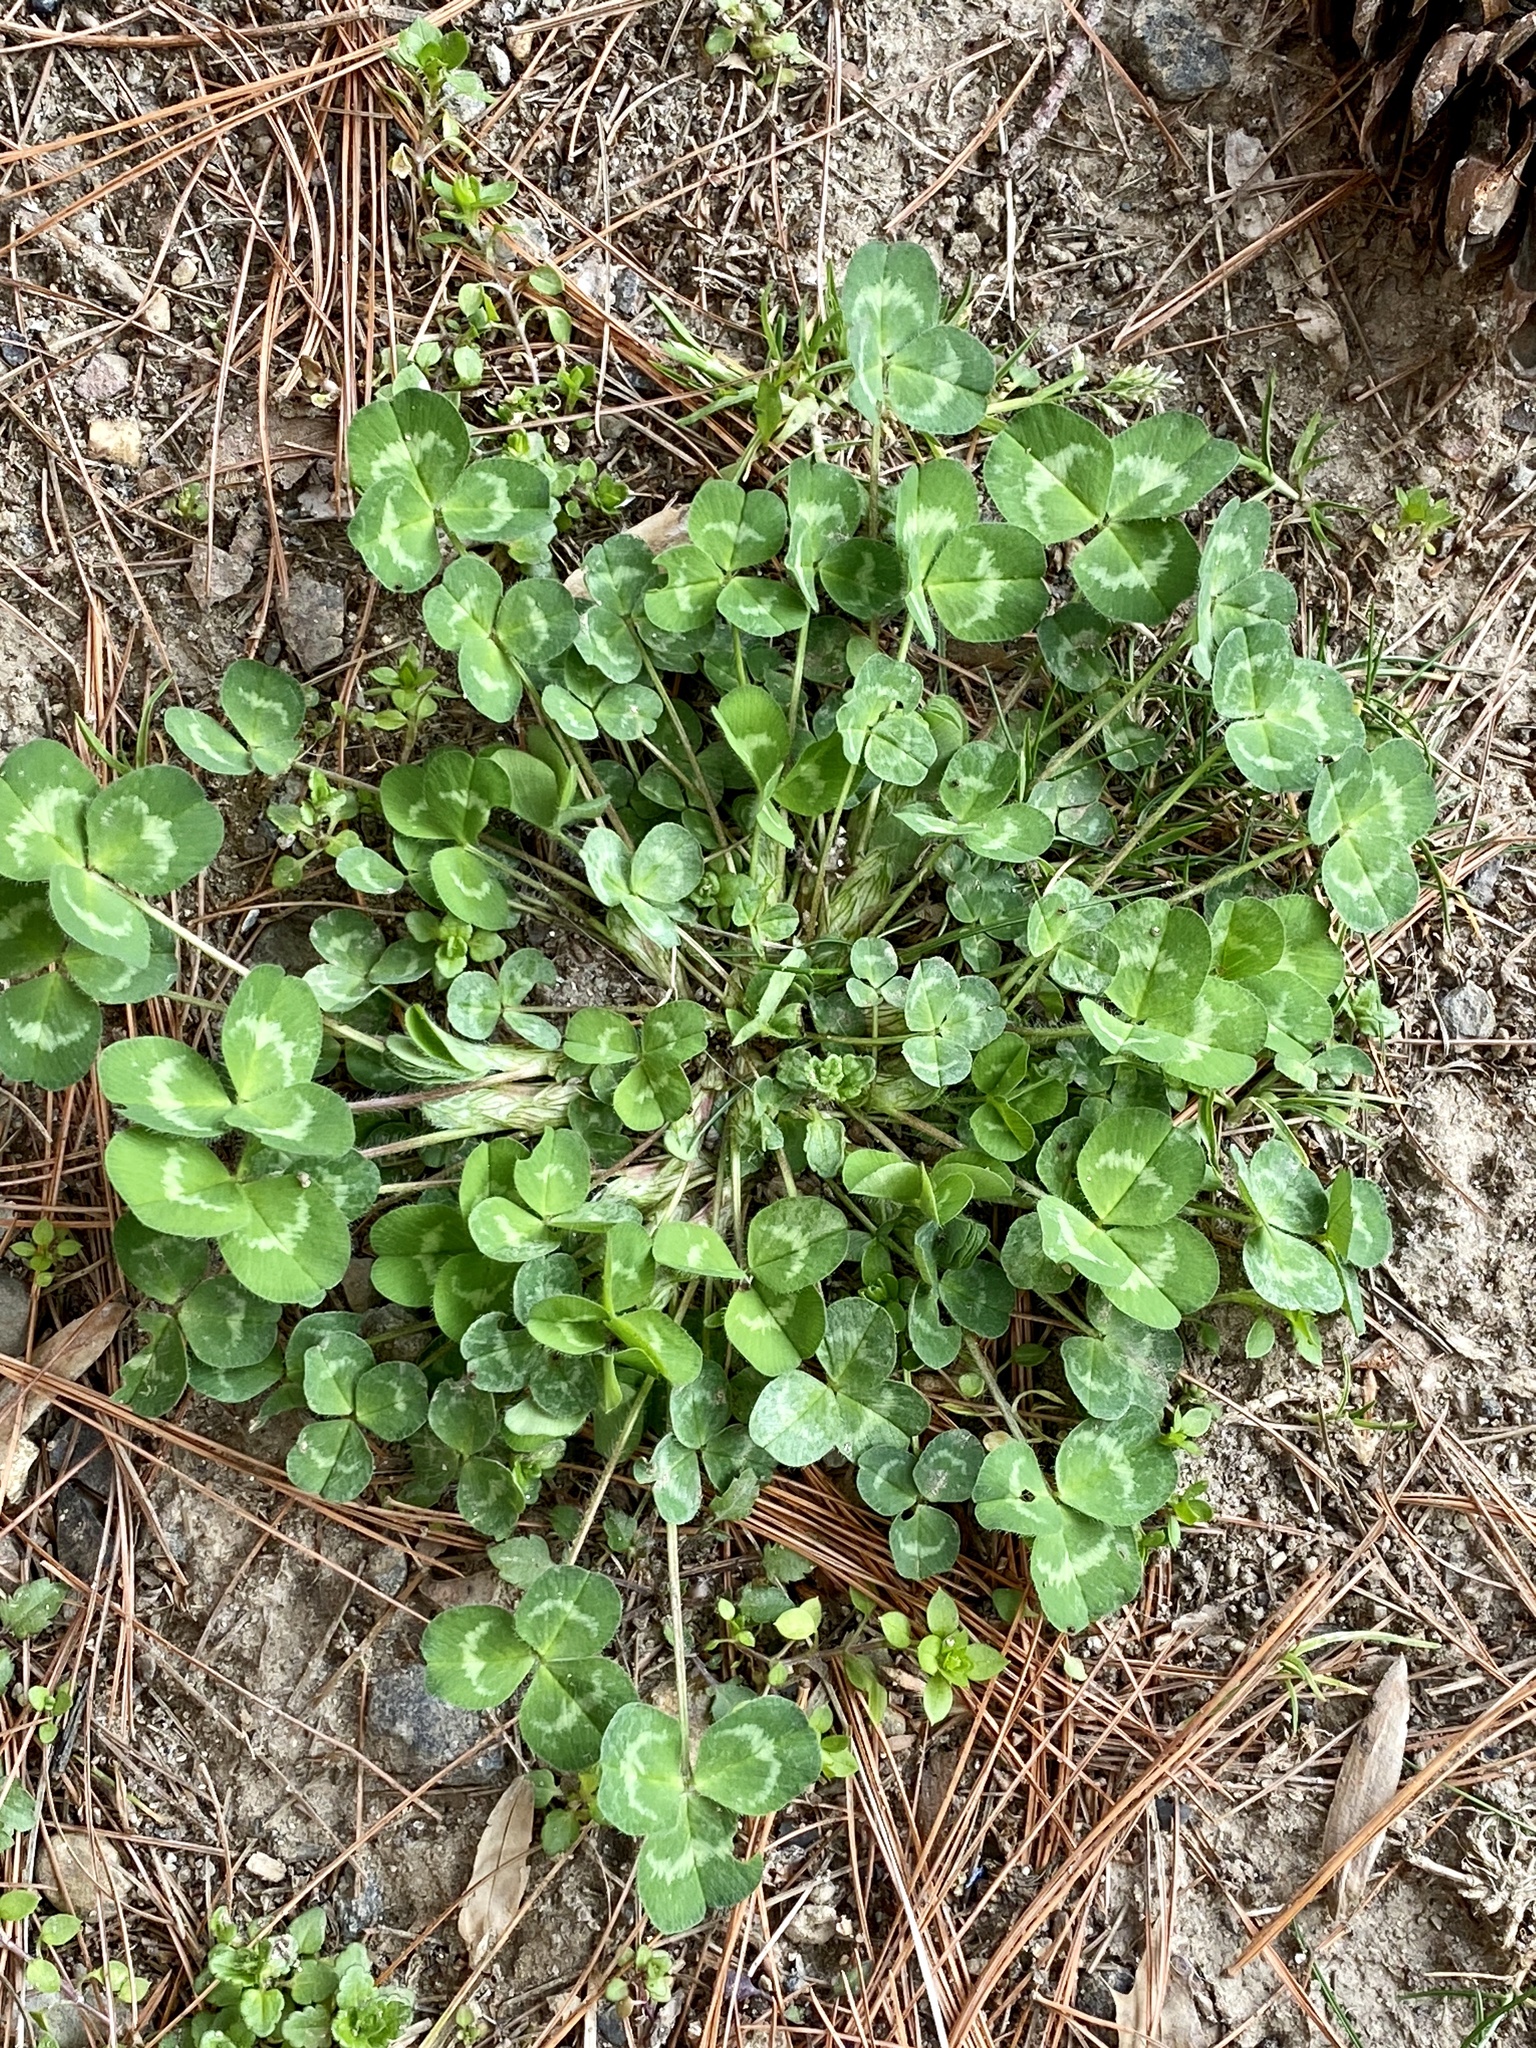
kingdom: Plantae
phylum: Tracheophyta
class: Magnoliopsida
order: Fabales
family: Fabaceae
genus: Trifolium
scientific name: Trifolium pratense
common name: Red clover
